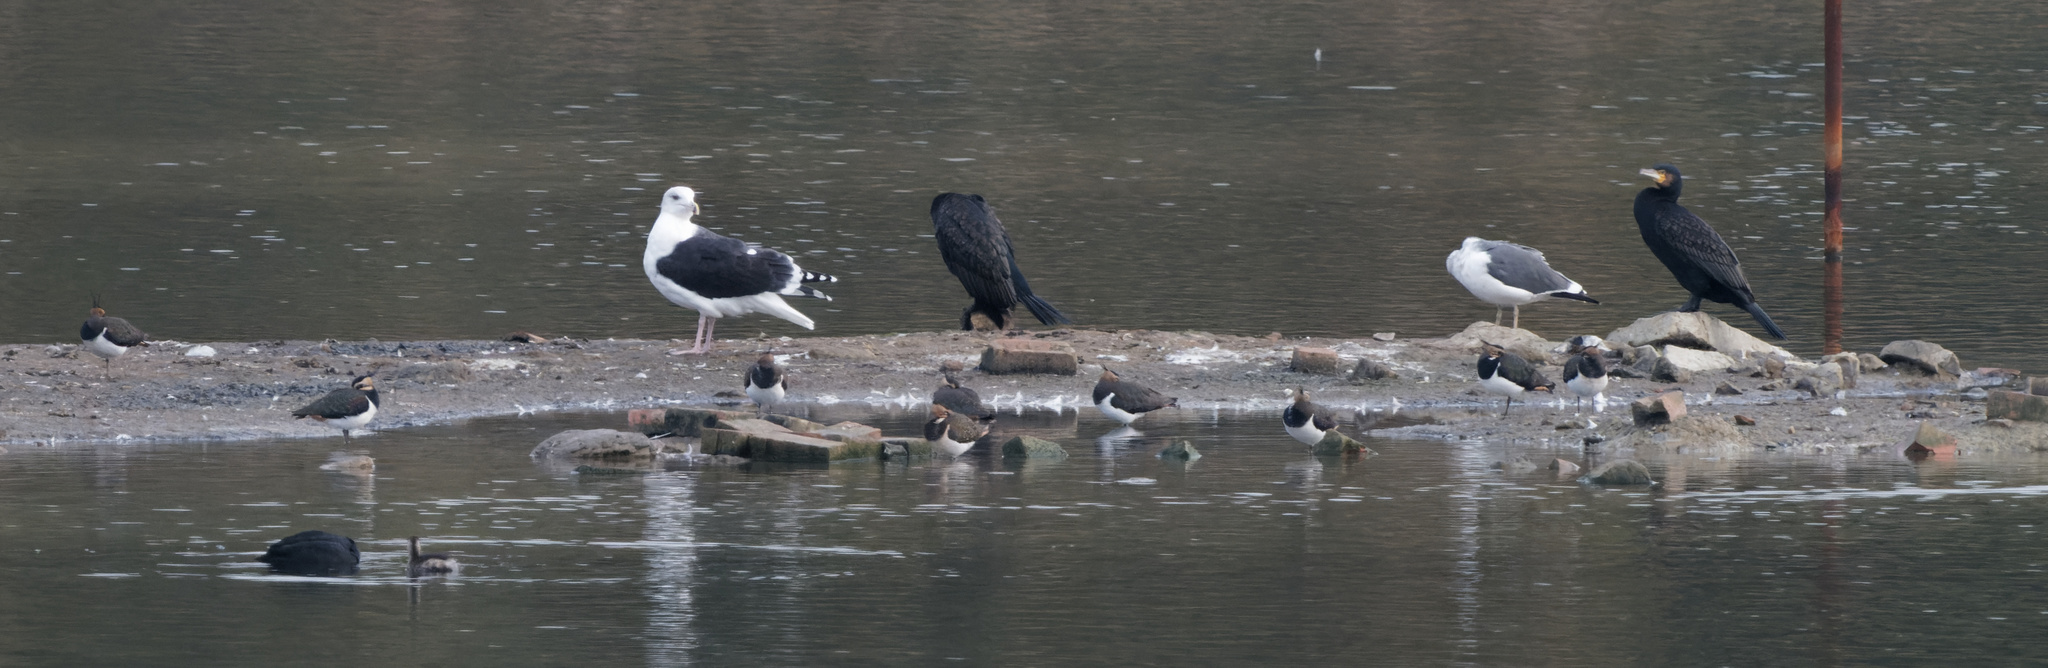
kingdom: Animalia
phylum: Chordata
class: Aves
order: Charadriiformes
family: Charadriidae
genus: Vanellus
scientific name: Vanellus vanellus
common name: Northern lapwing
